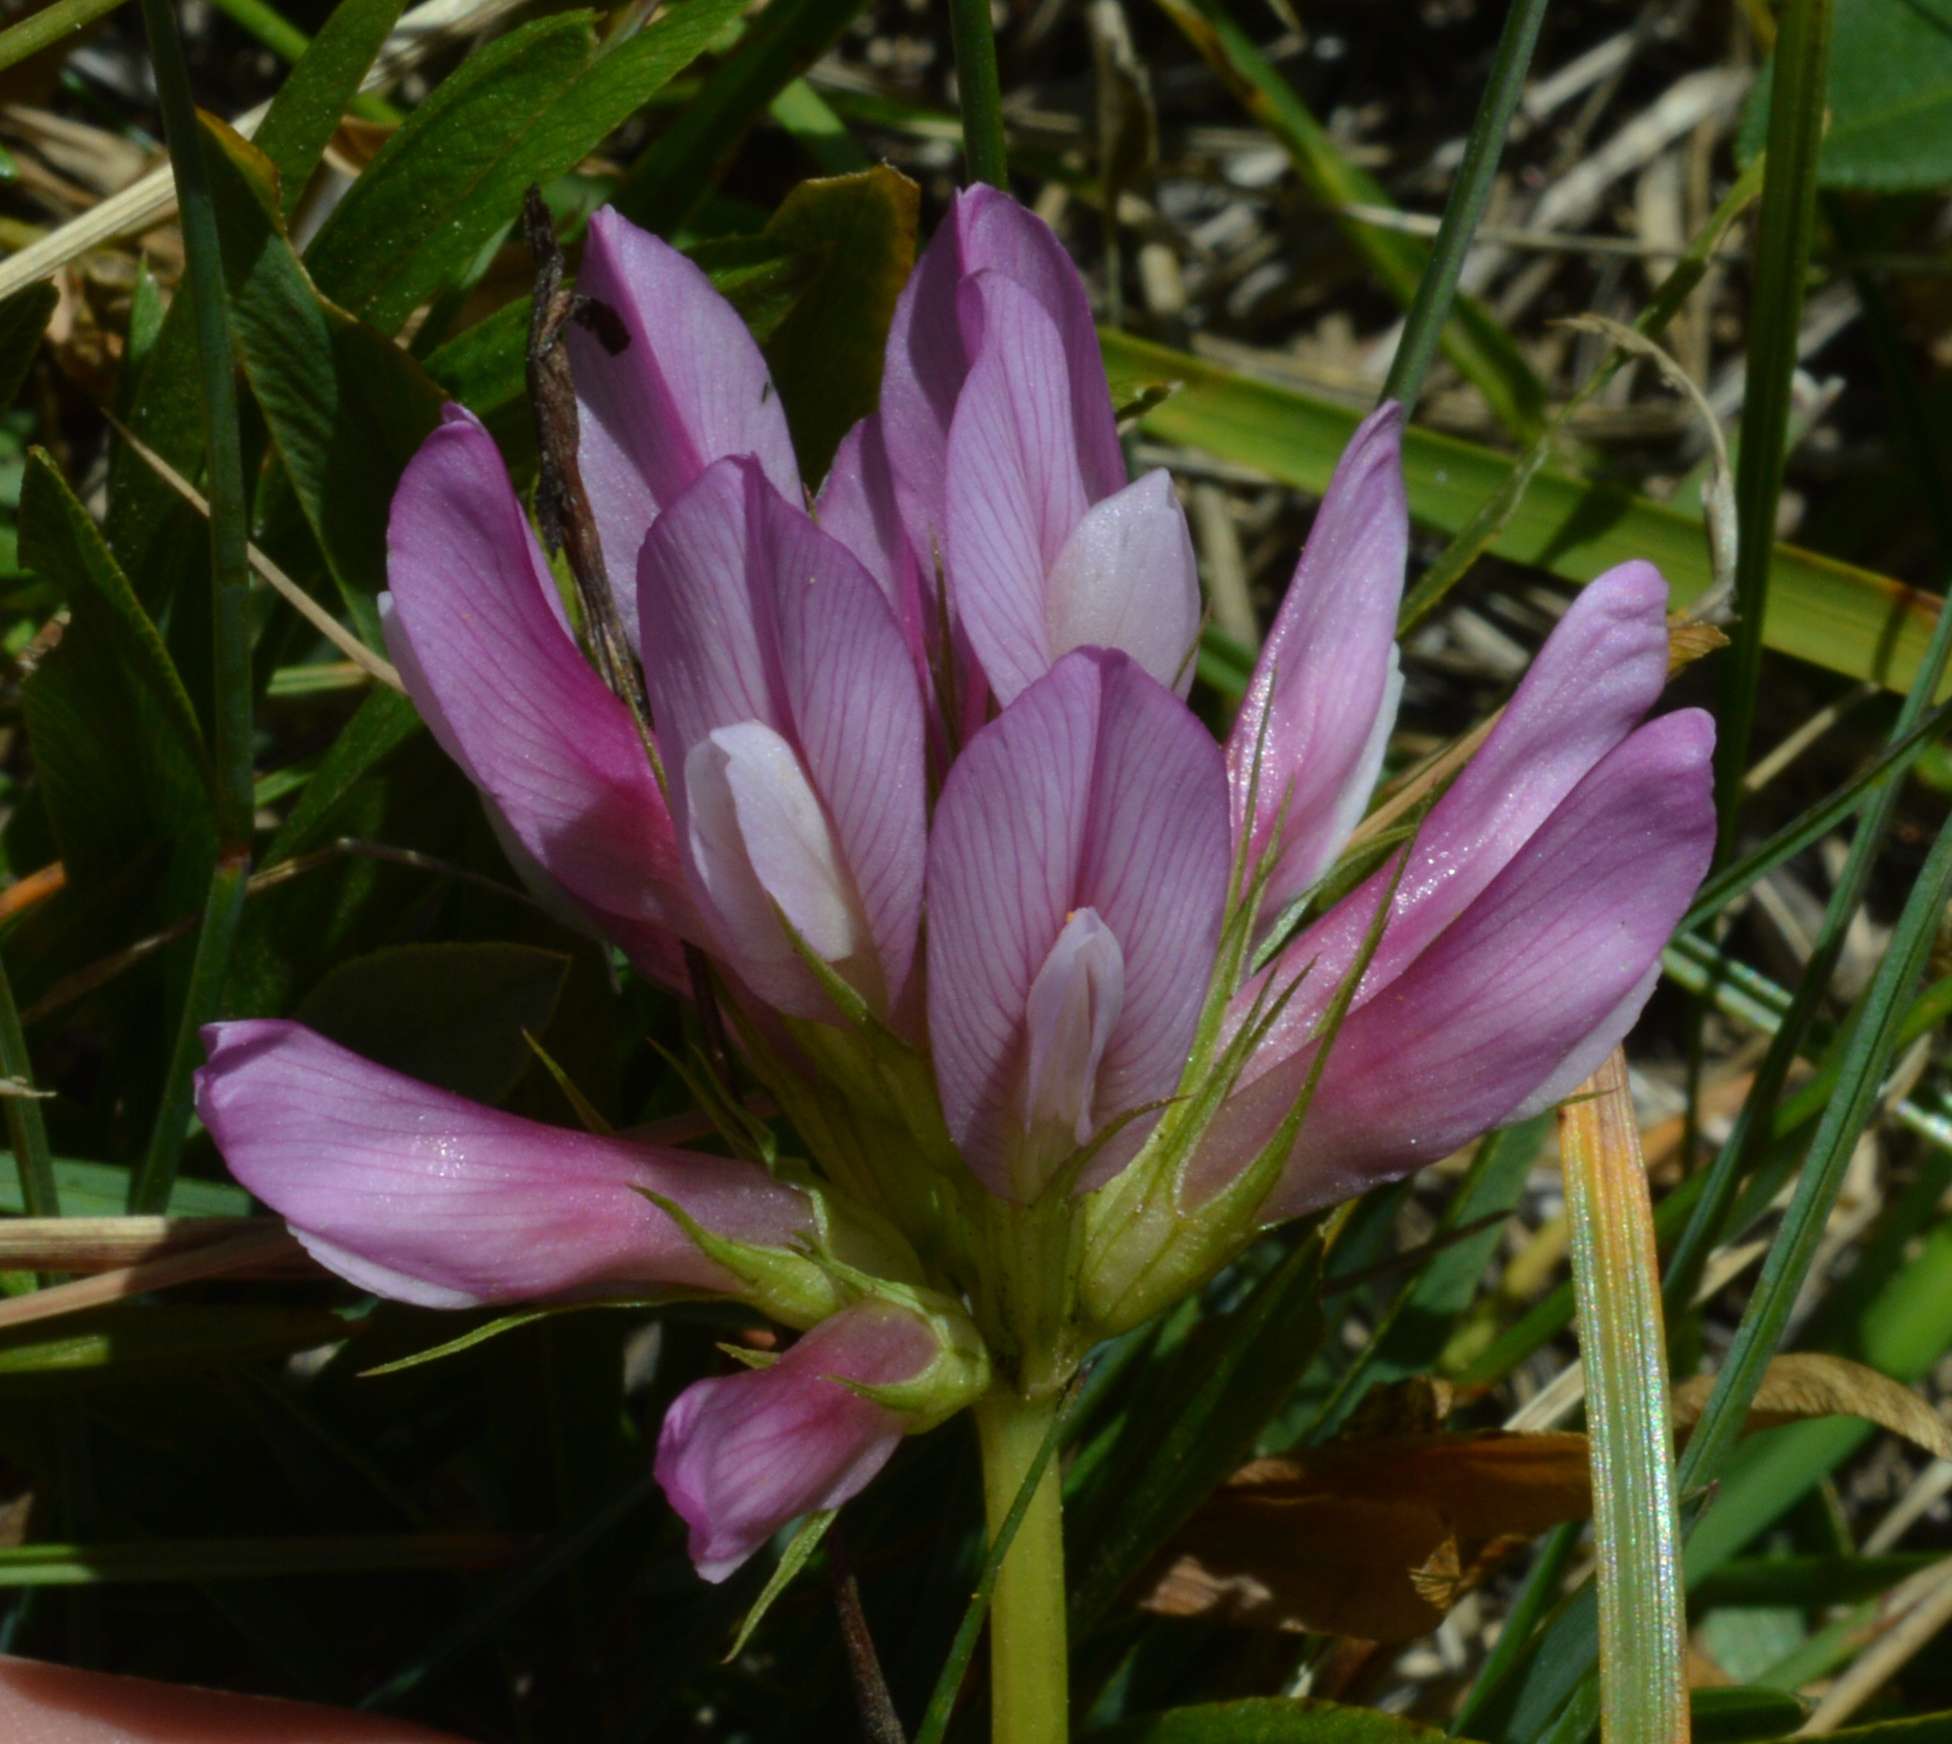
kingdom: Plantae
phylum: Tracheophyta
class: Magnoliopsida
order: Fabales
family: Fabaceae
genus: Trifolium
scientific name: Trifolium alpinum
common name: Alpine clover
